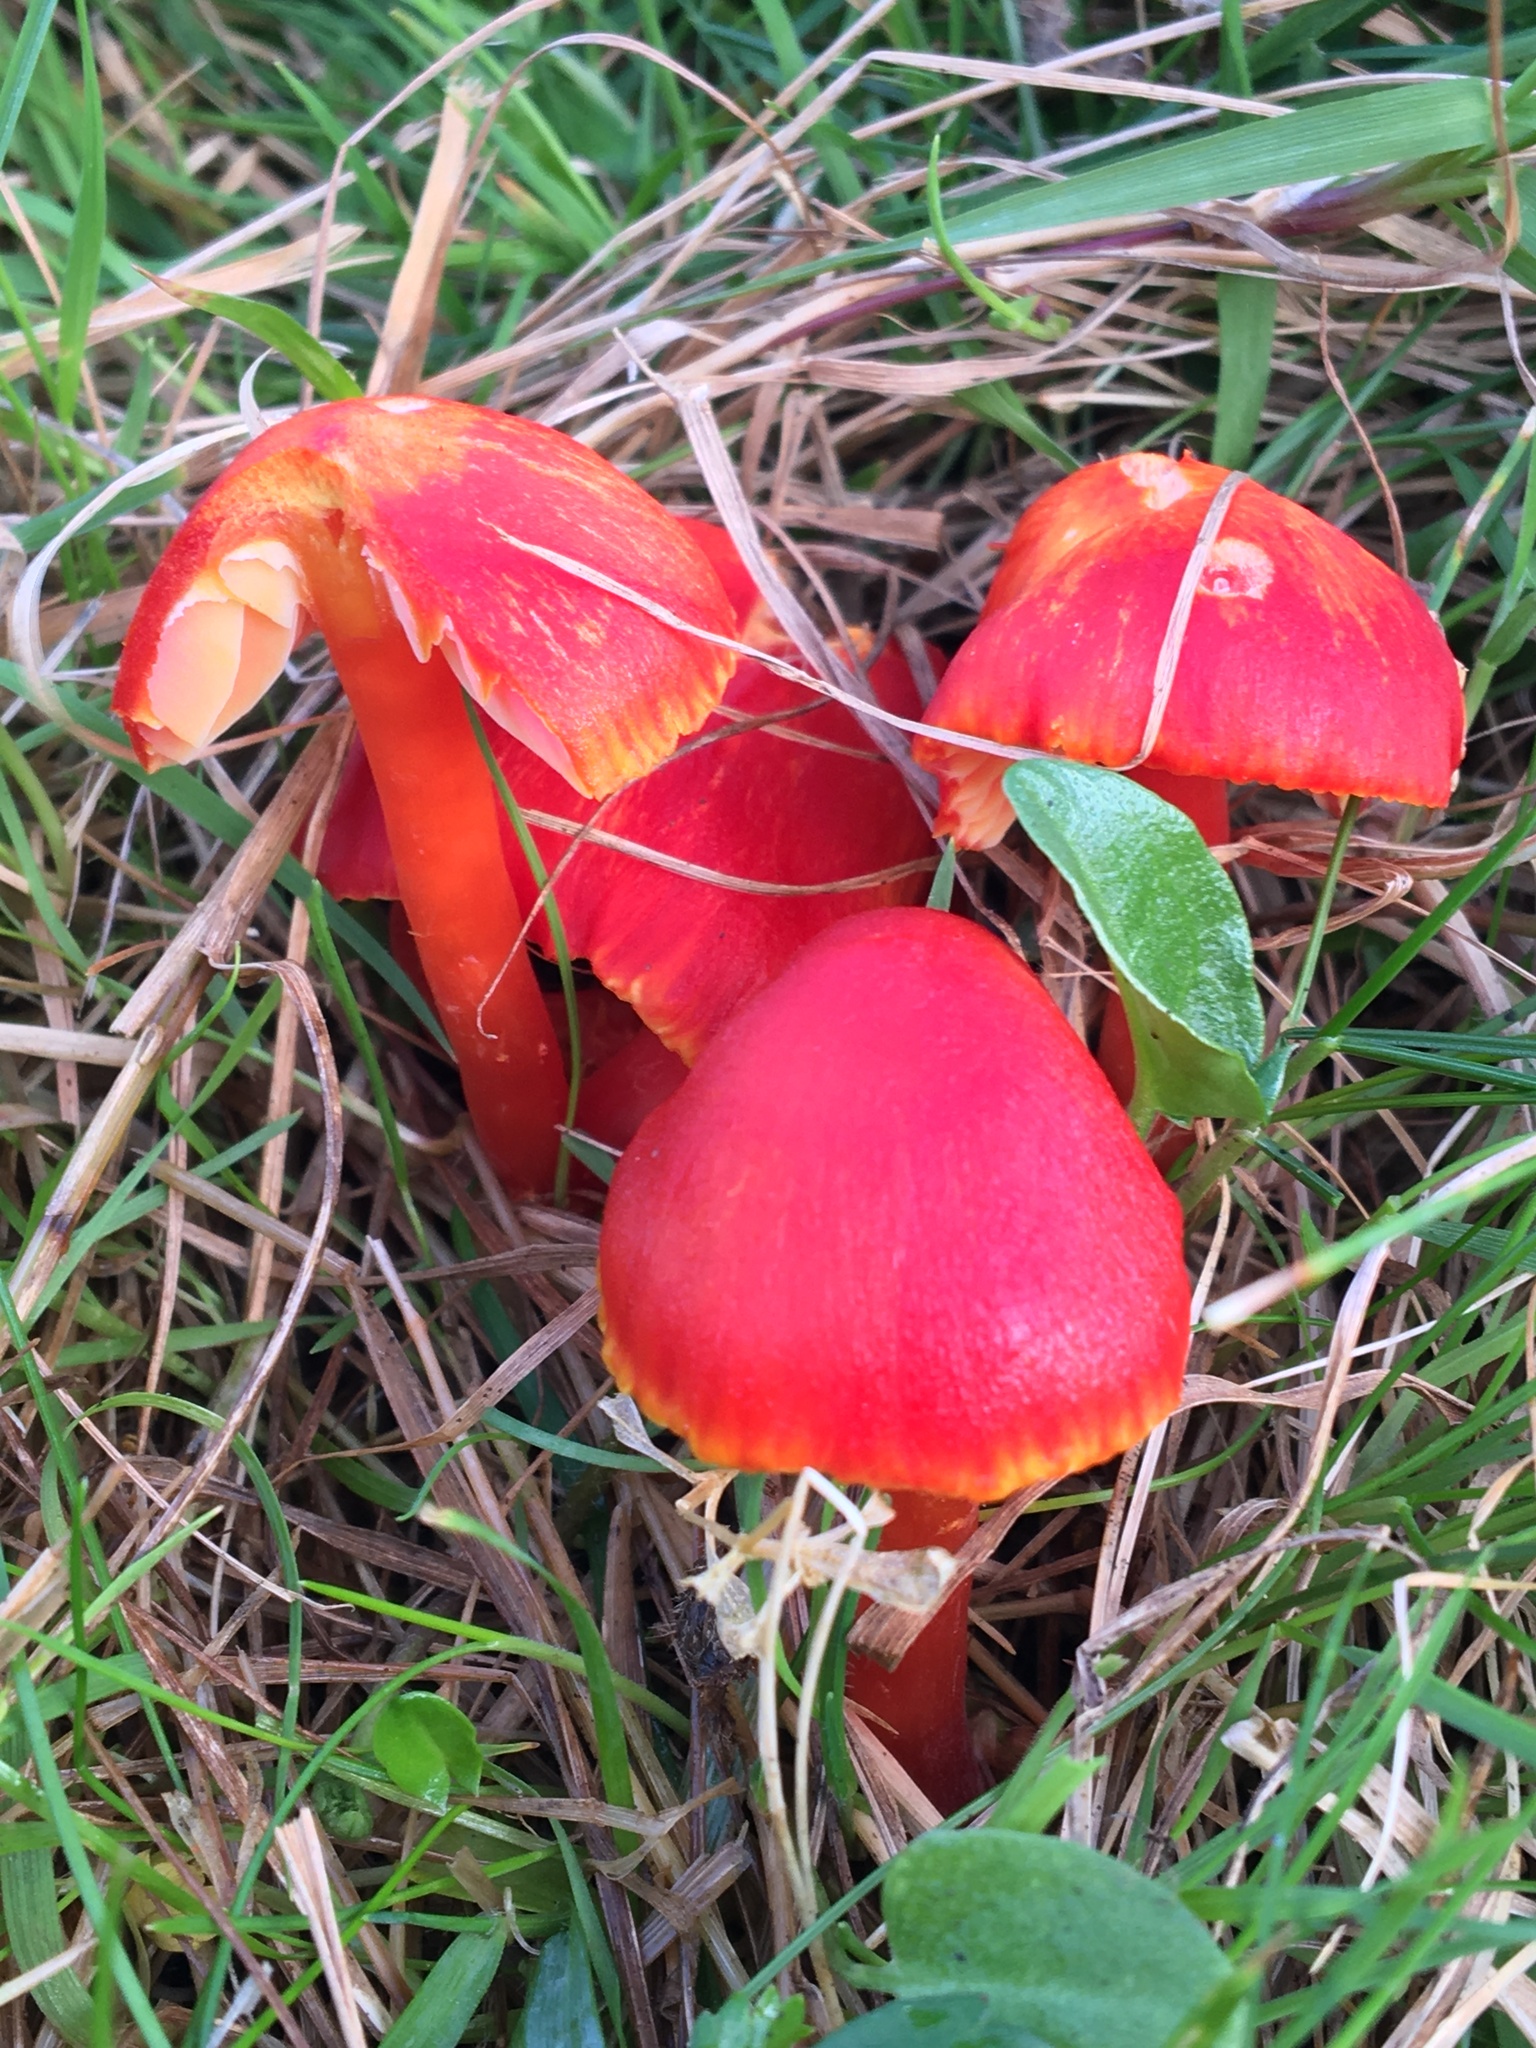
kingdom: Fungi
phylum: Basidiomycota
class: Agaricomycetes
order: Agaricales
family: Hygrophoraceae
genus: Hygrocybe
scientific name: Hygrocybe coccinea
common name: Scarlet hood
